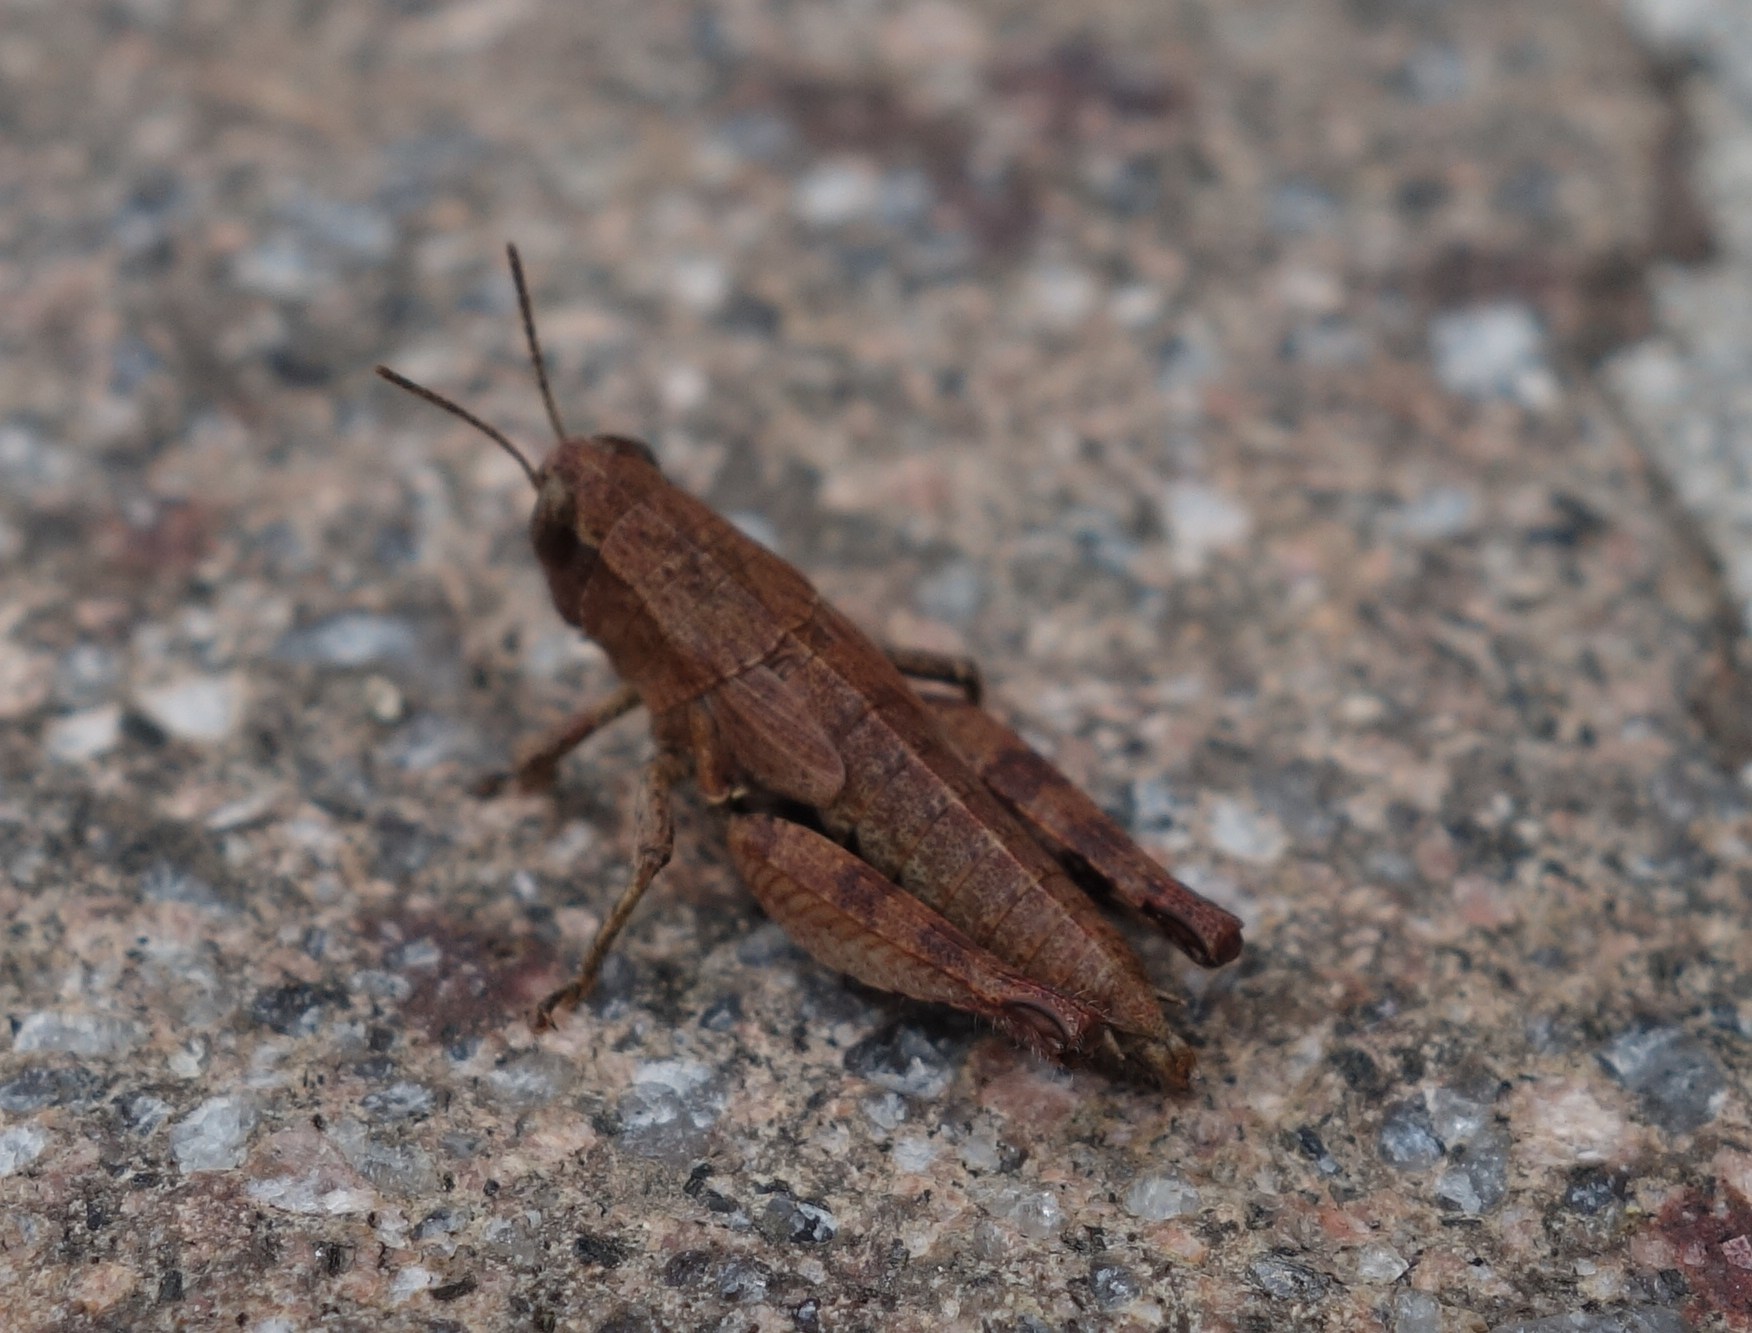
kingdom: Animalia
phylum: Arthropoda
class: Insecta
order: Orthoptera
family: Acrididae
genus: Pezotettix
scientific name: Pezotettix giornae
